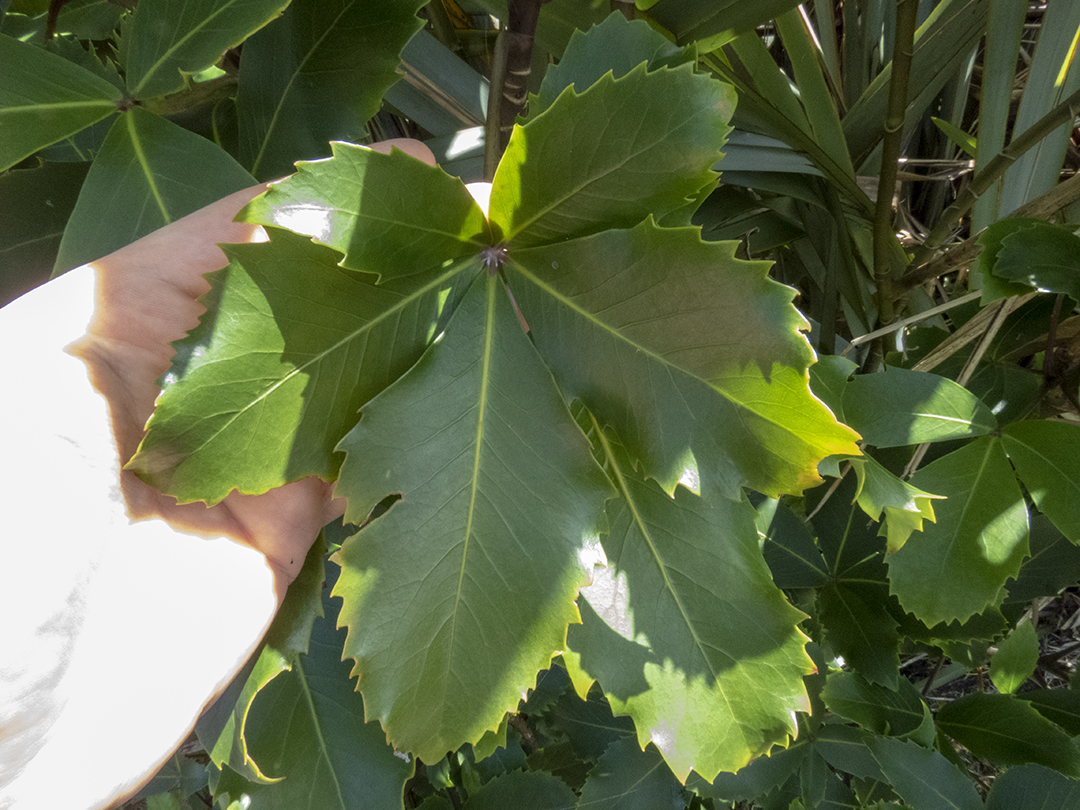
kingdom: Plantae
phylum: Tracheophyta
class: Magnoliopsida
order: Apiales
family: Araliaceae
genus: Neopanax
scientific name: Neopanax colensoi
